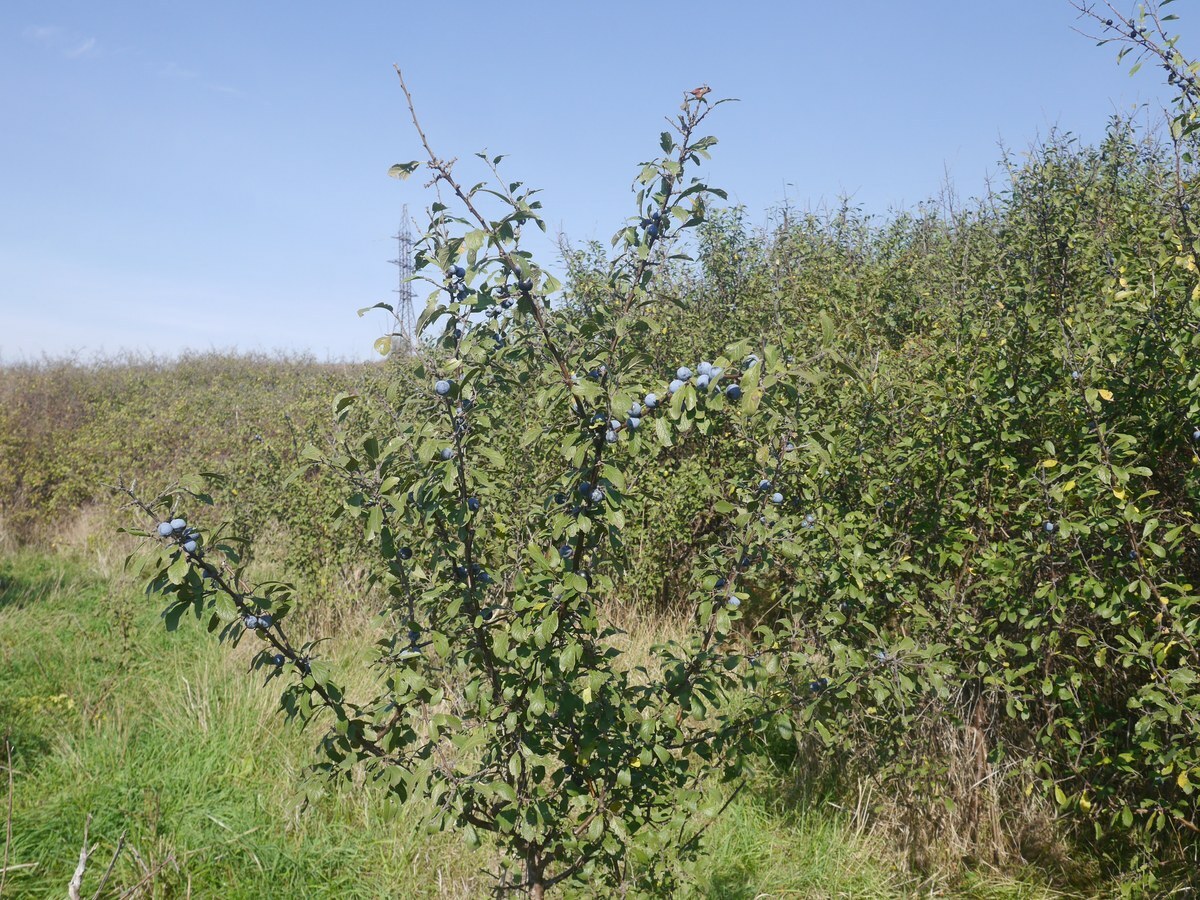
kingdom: Plantae
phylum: Tracheophyta
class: Magnoliopsida
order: Rosales
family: Rosaceae
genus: Prunus
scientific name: Prunus spinosa
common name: Blackthorn
